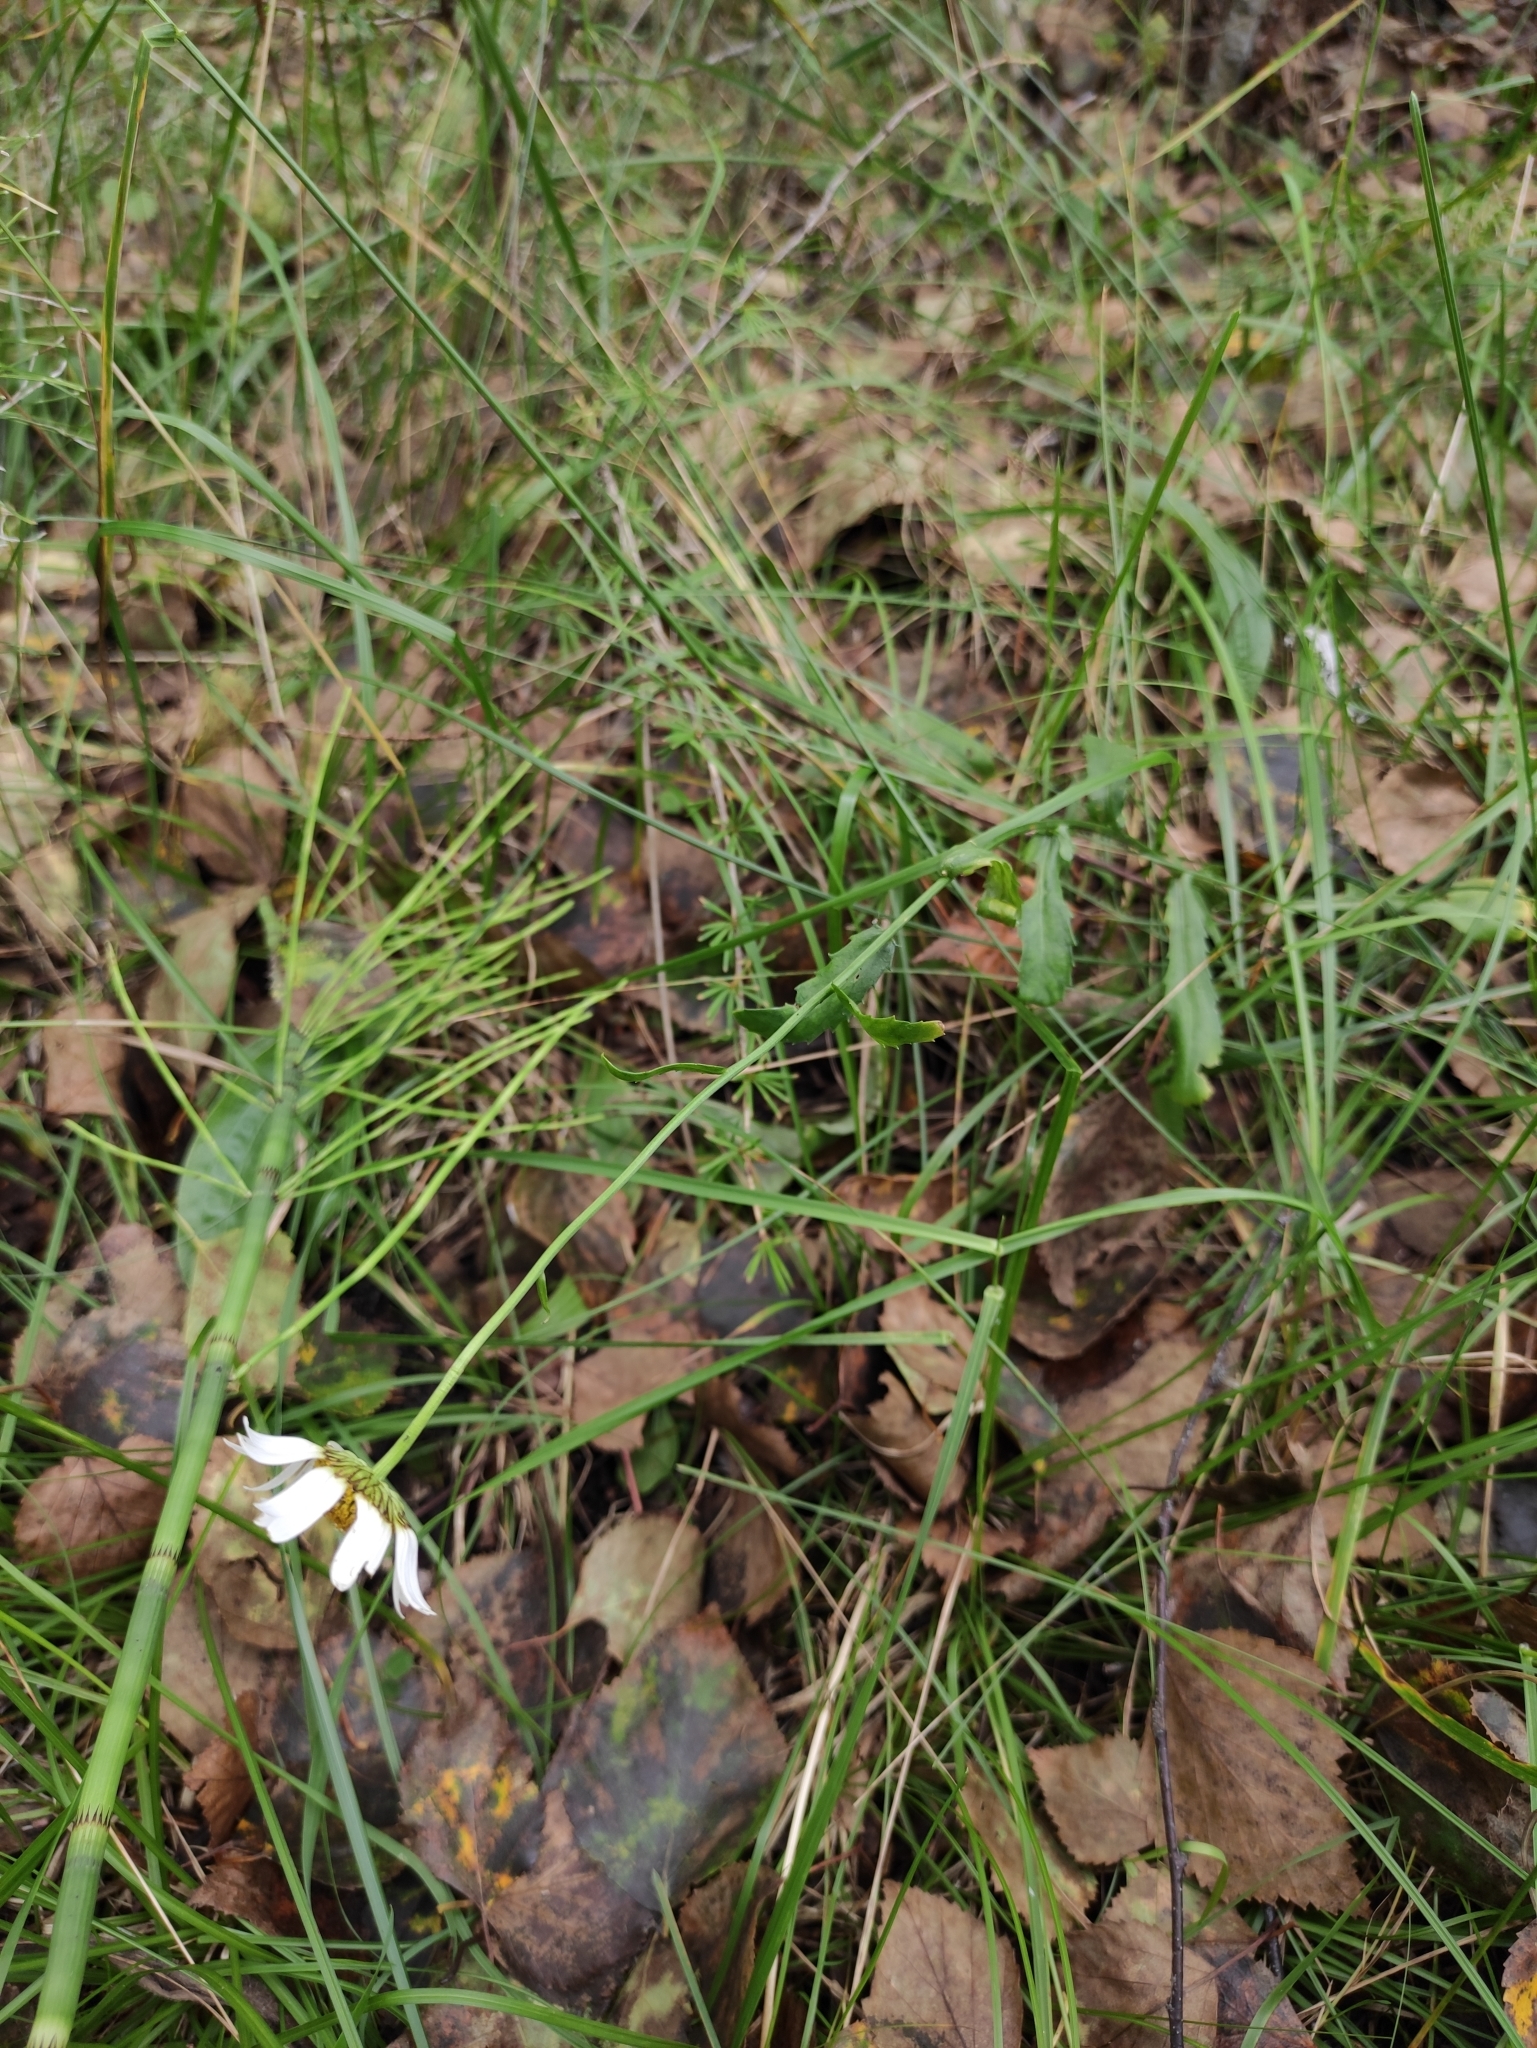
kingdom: Plantae
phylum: Tracheophyta
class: Magnoliopsida
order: Asterales
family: Asteraceae
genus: Leucanthemum
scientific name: Leucanthemum ircutianum
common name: Daisy
